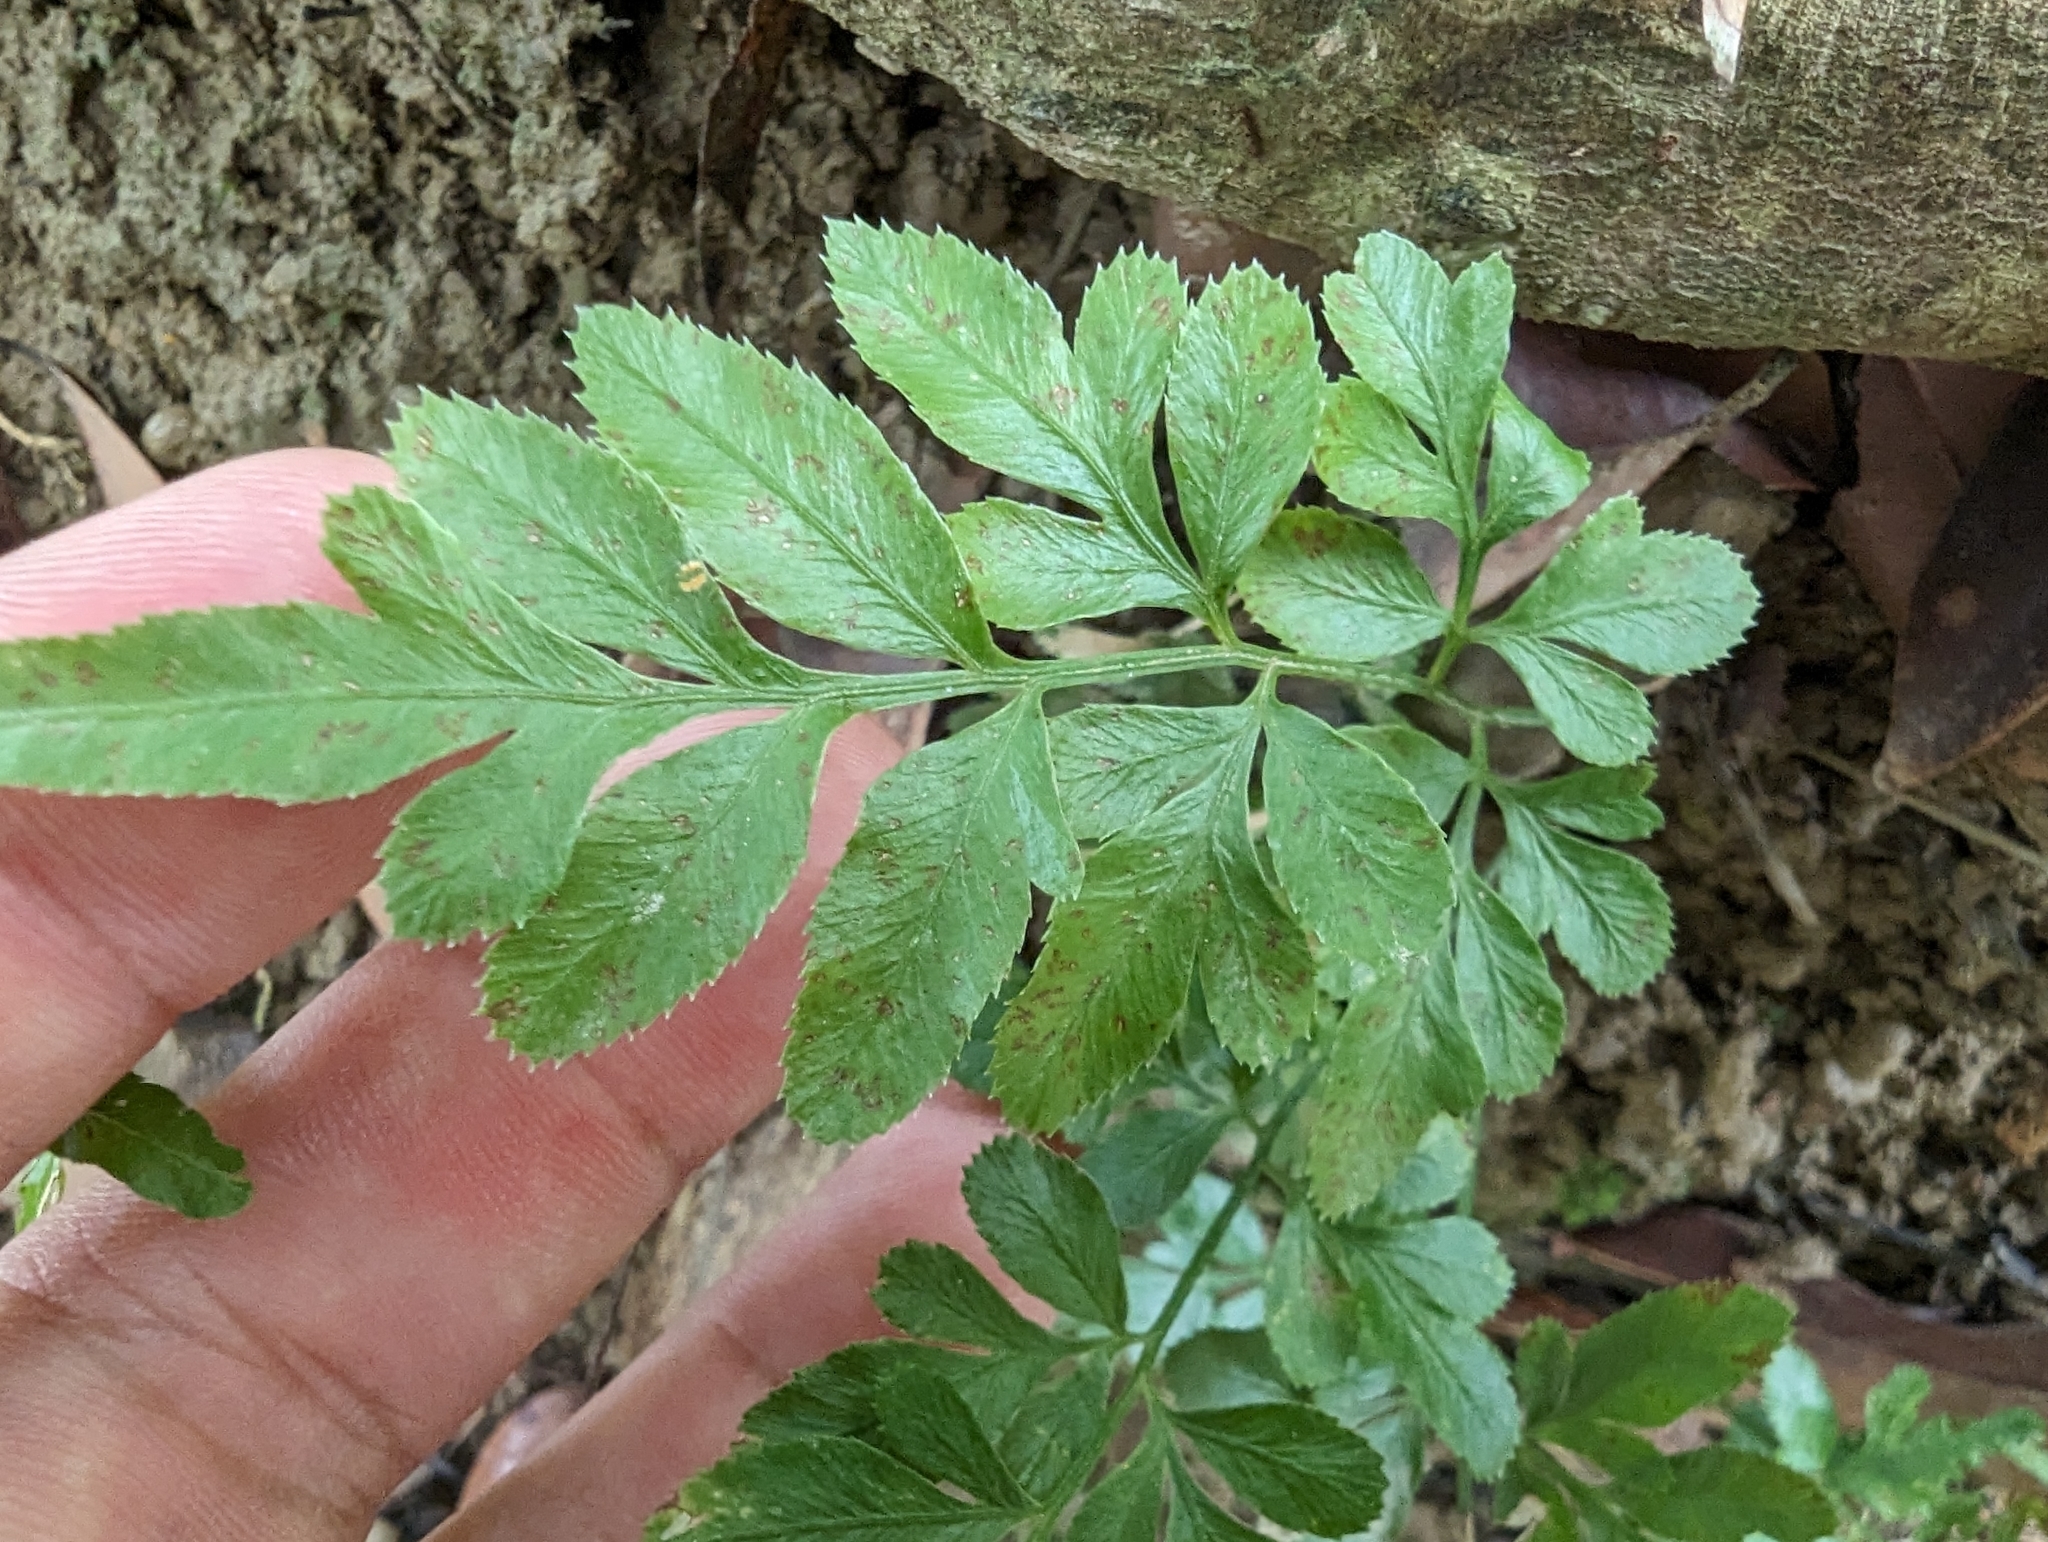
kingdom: Plantae
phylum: Tracheophyta
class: Polypodiopsida
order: Polypodiales
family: Pteridaceae
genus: Pteris
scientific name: Pteris ensiformis
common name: Sword brake
